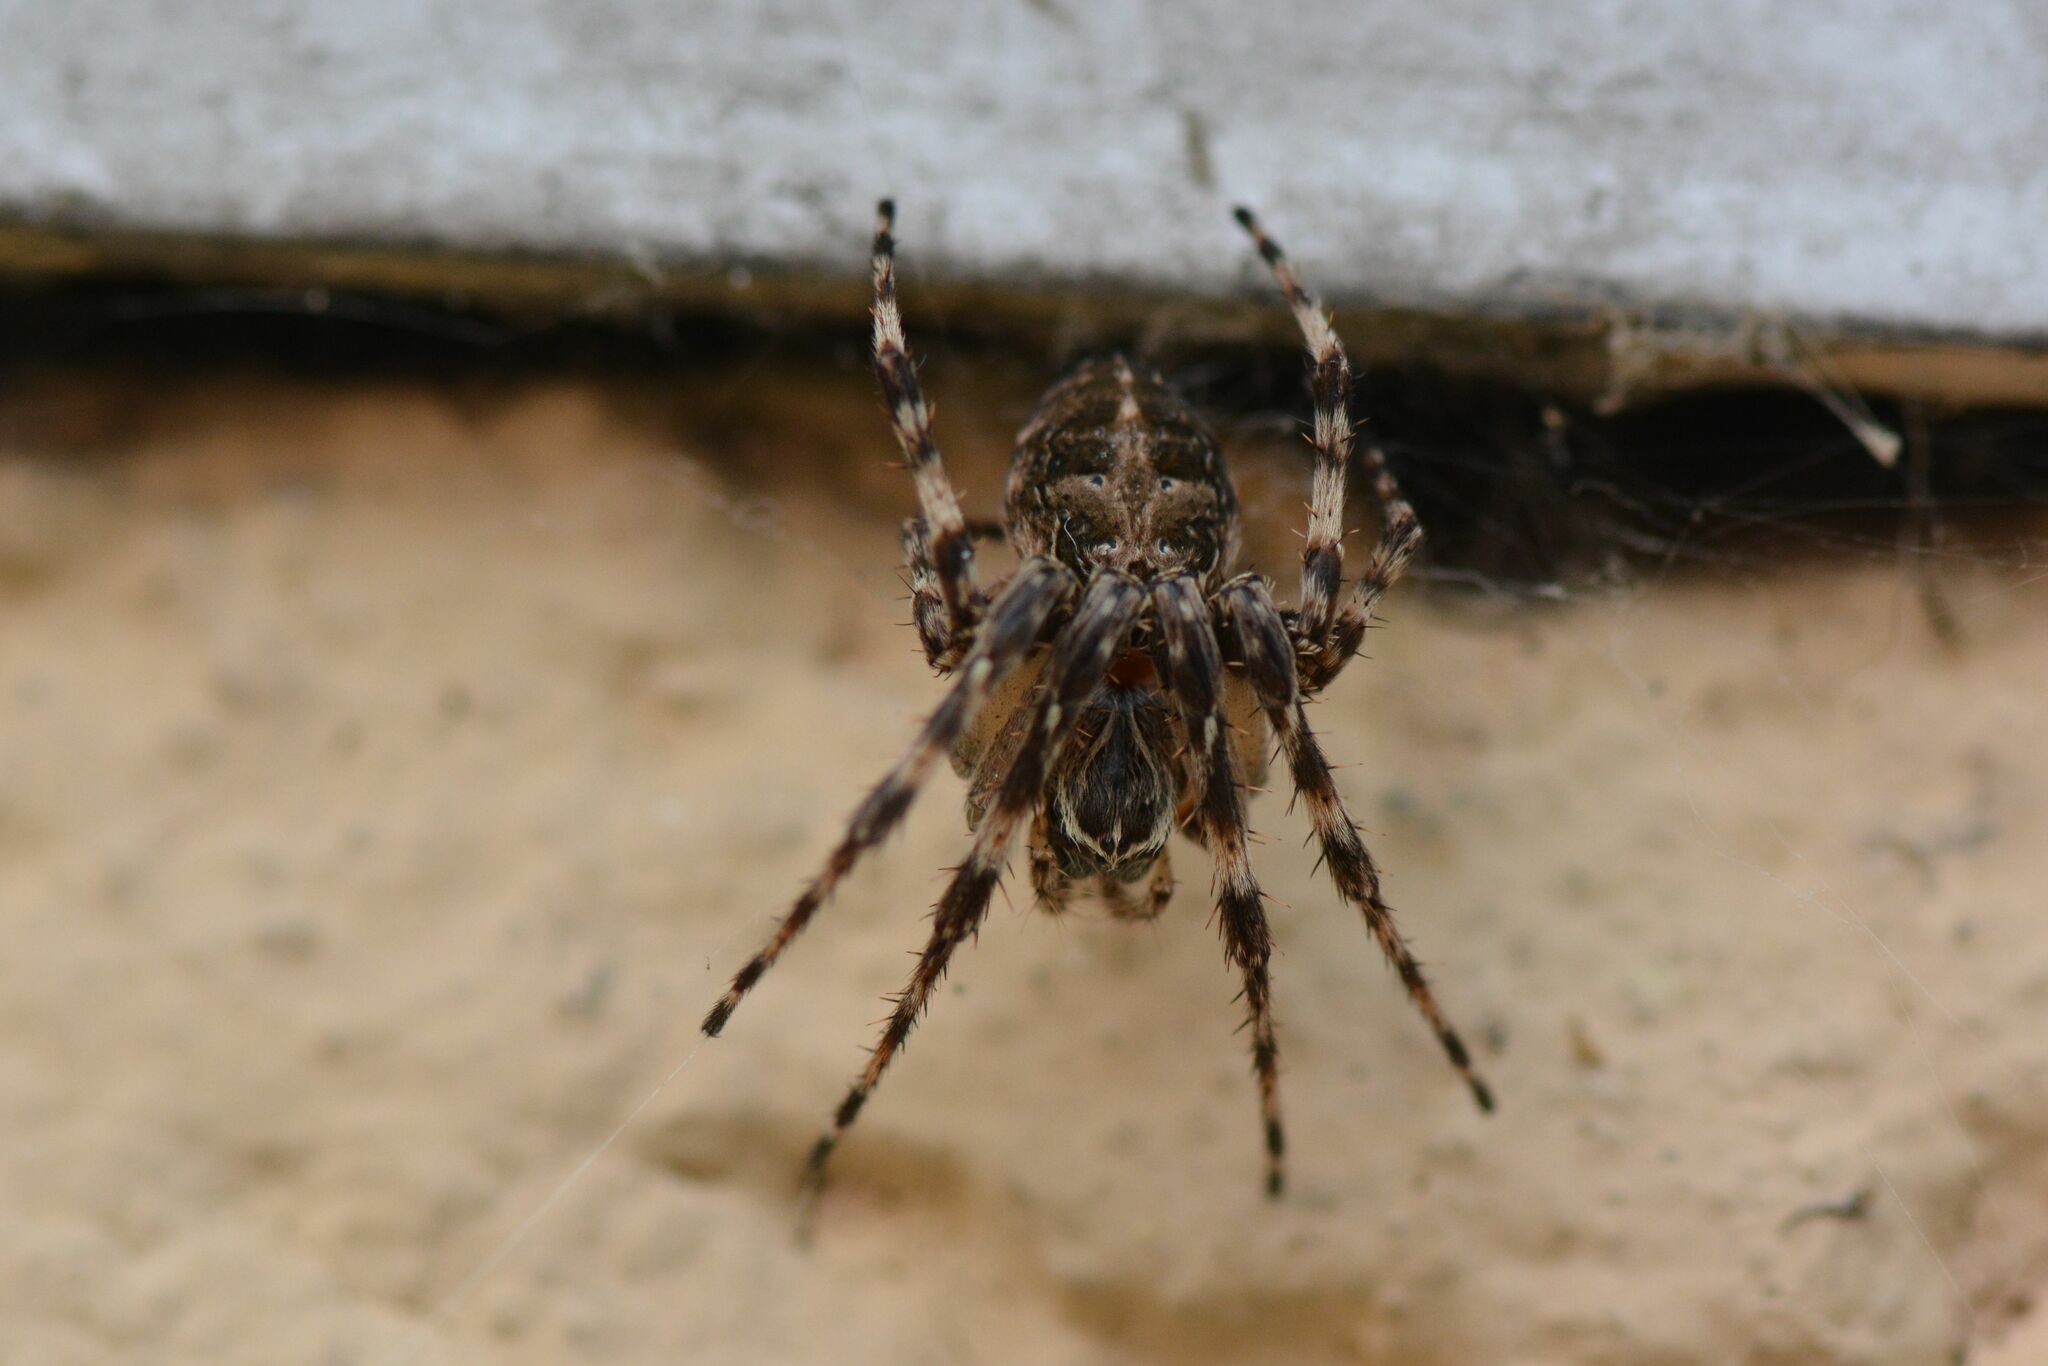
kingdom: Animalia
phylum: Arthropoda
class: Arachnida
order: Araneae
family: Araneidae
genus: Larinioides
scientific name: Larinioides sclopetarius
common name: Bridge orbweaver
